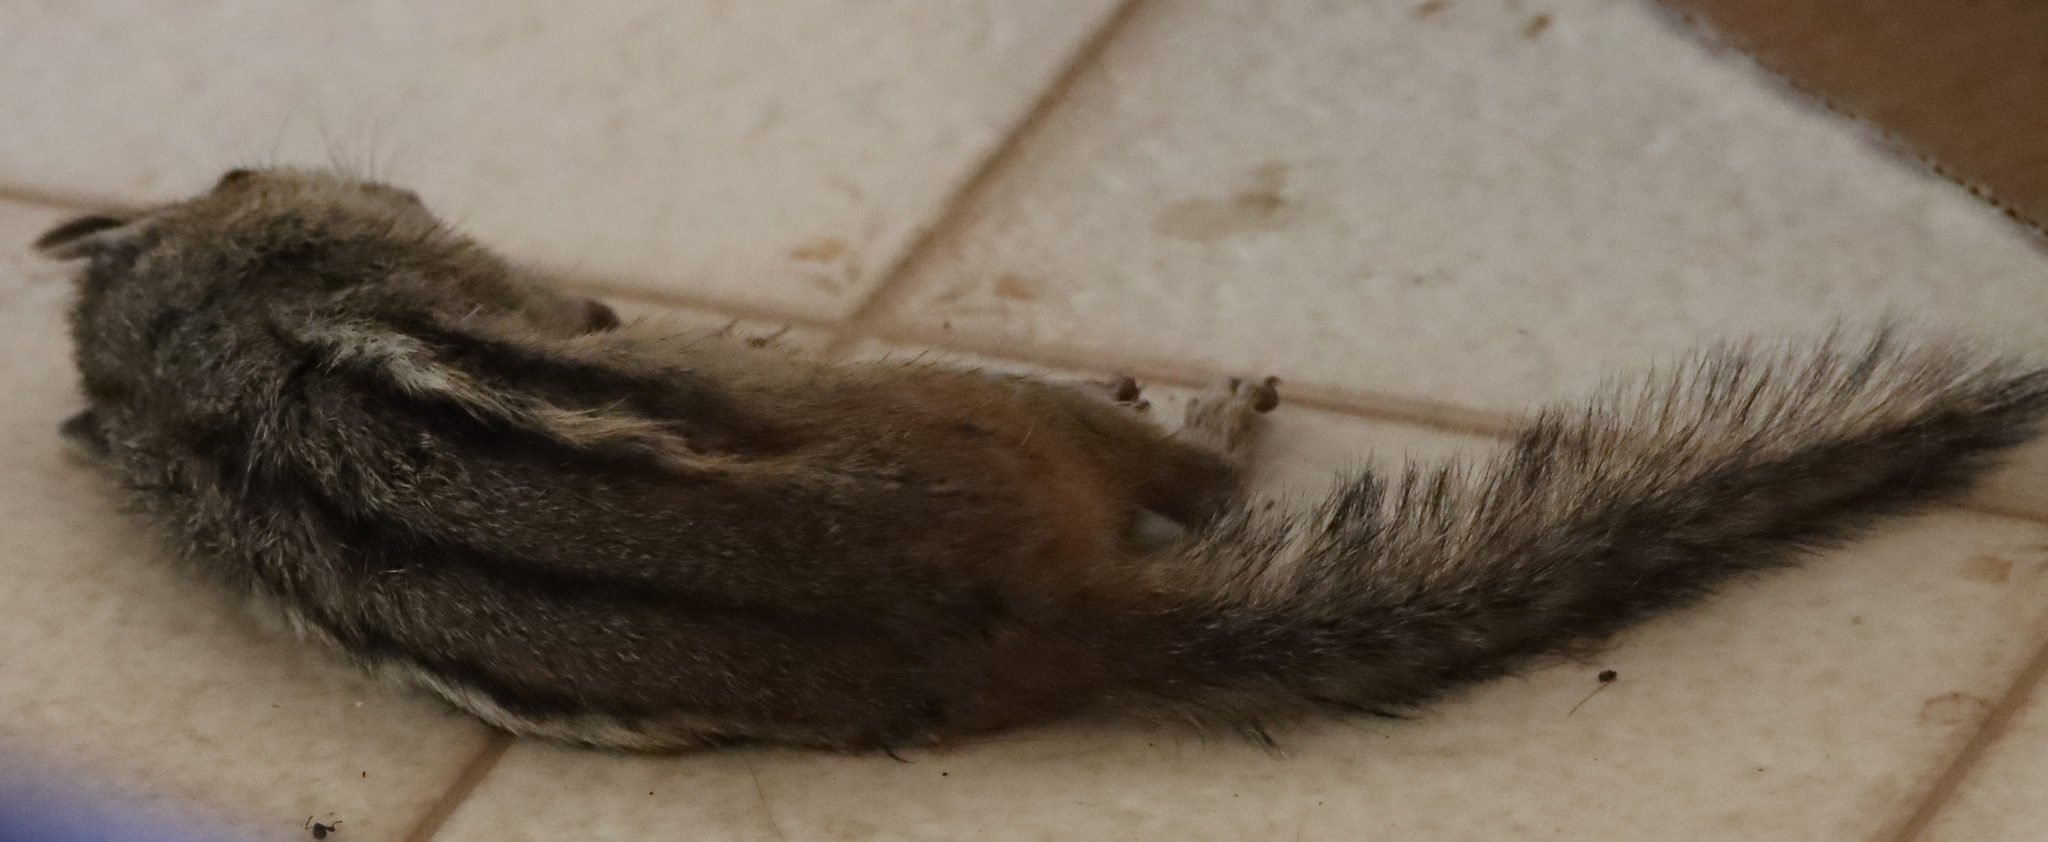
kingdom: Animalia
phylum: Chordata
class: Mammalia
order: Rodentia
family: Sciuridae
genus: Tamias
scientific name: Tamias striatus
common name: Eastern chipmunk
